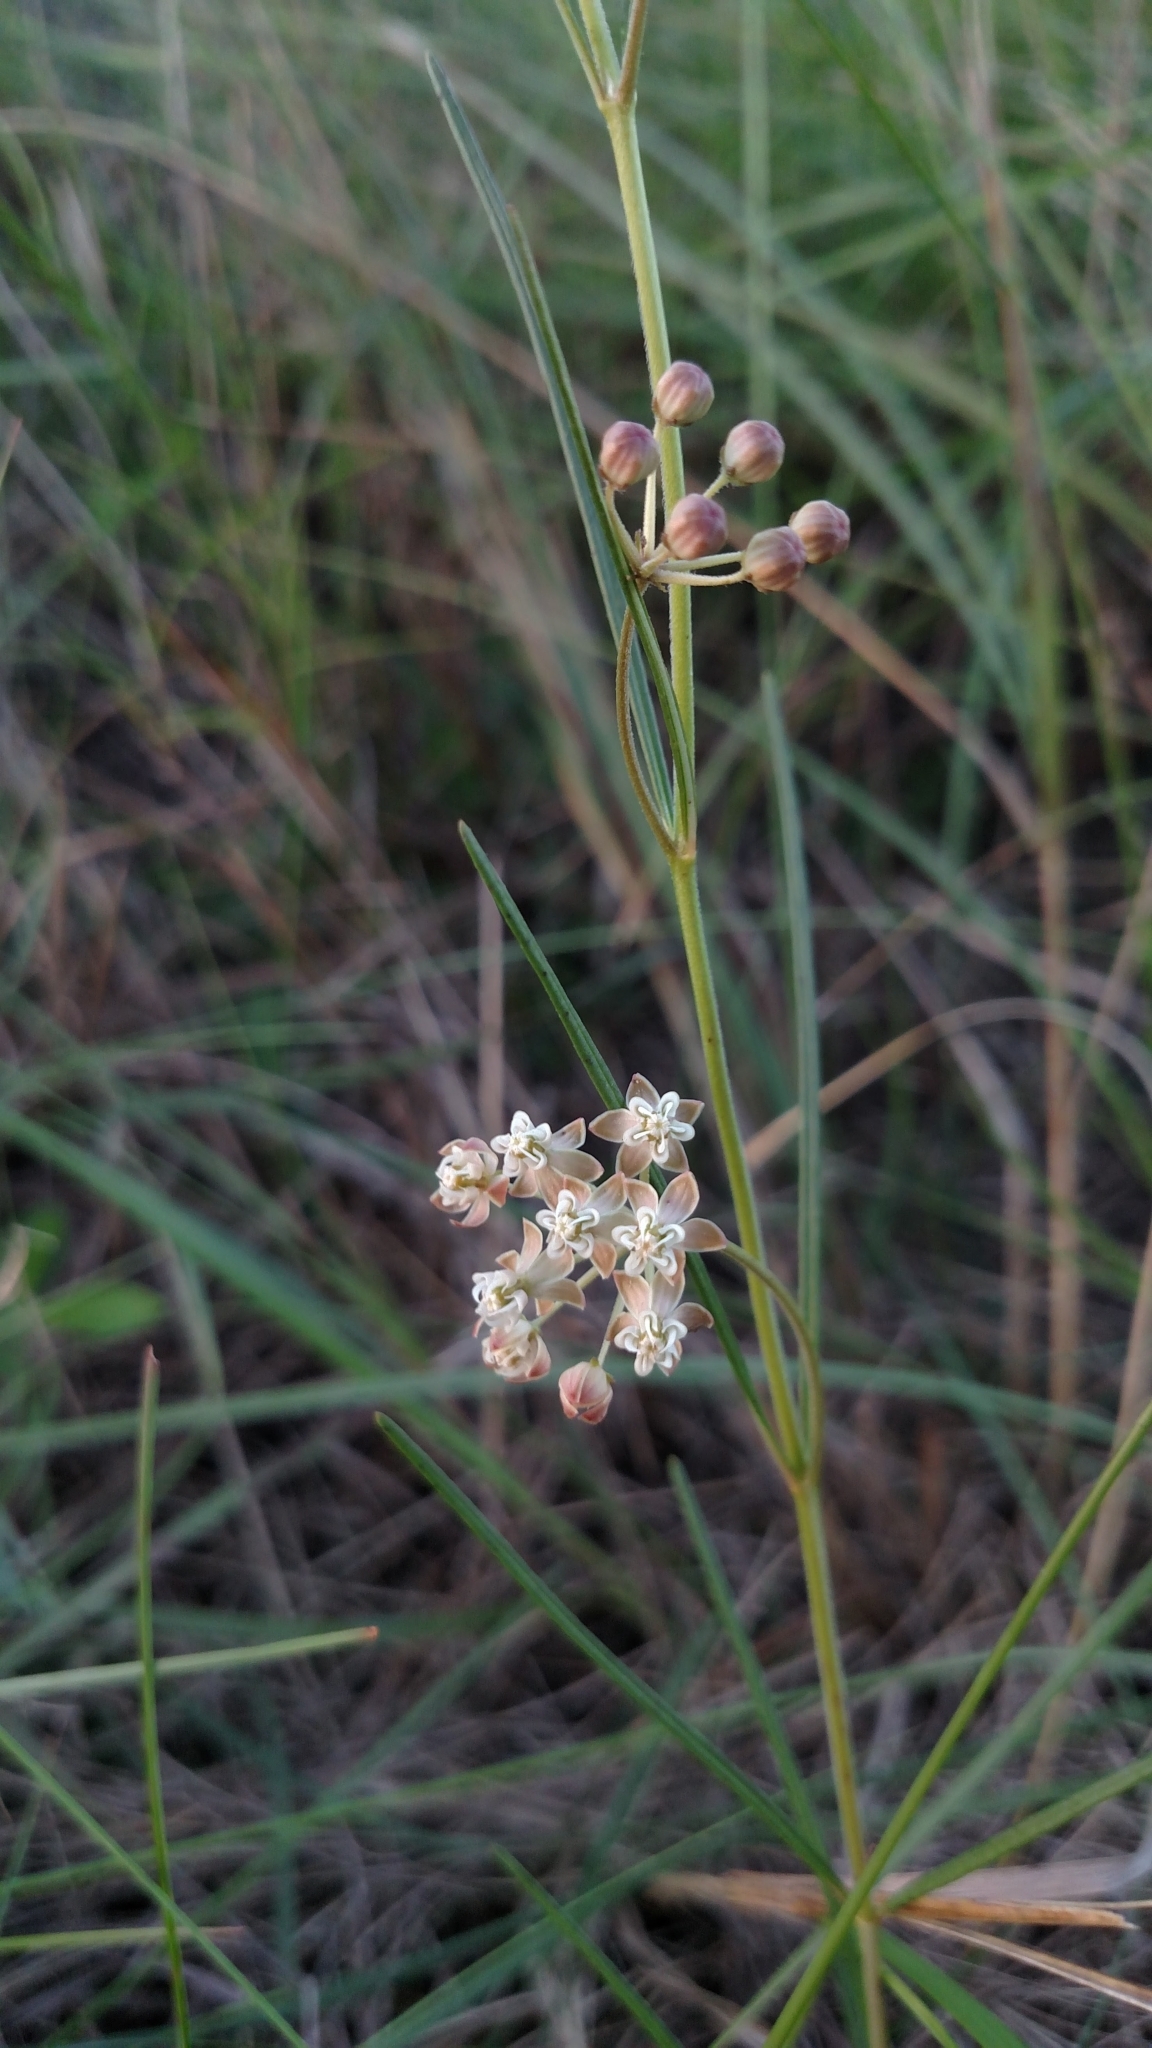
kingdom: Plantae
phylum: Tracheophyta
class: Magnoliopsida
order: Gentianales
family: Apocynaceae
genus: Asclepias
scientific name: Asclepias verticillata
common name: Eastern whorled milkweed
